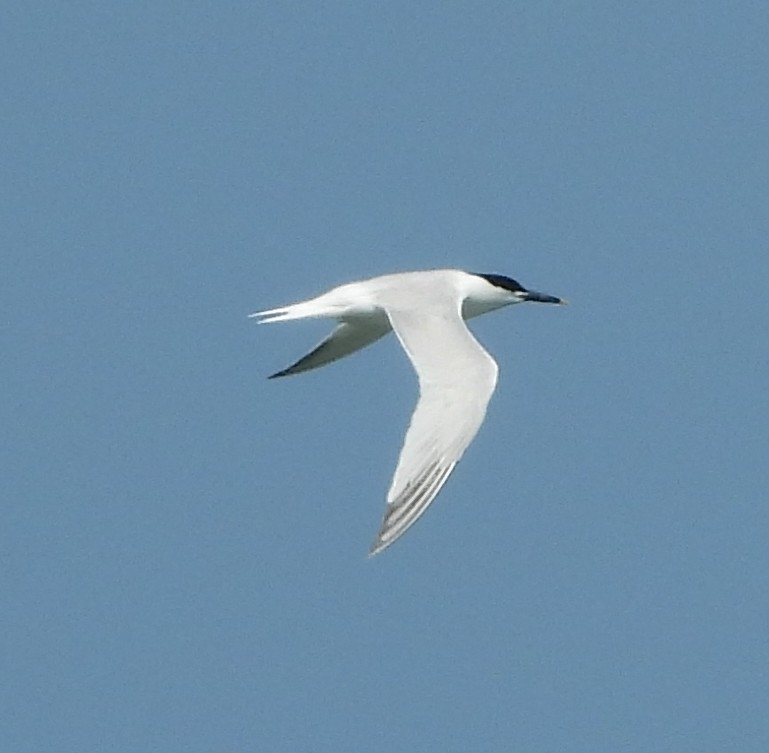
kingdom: Animalia
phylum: Chordata
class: Aves
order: Charadriiformes
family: Laridae
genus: Thalasseus
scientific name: Thalasseus sandvicensis
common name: Sandwich tern
